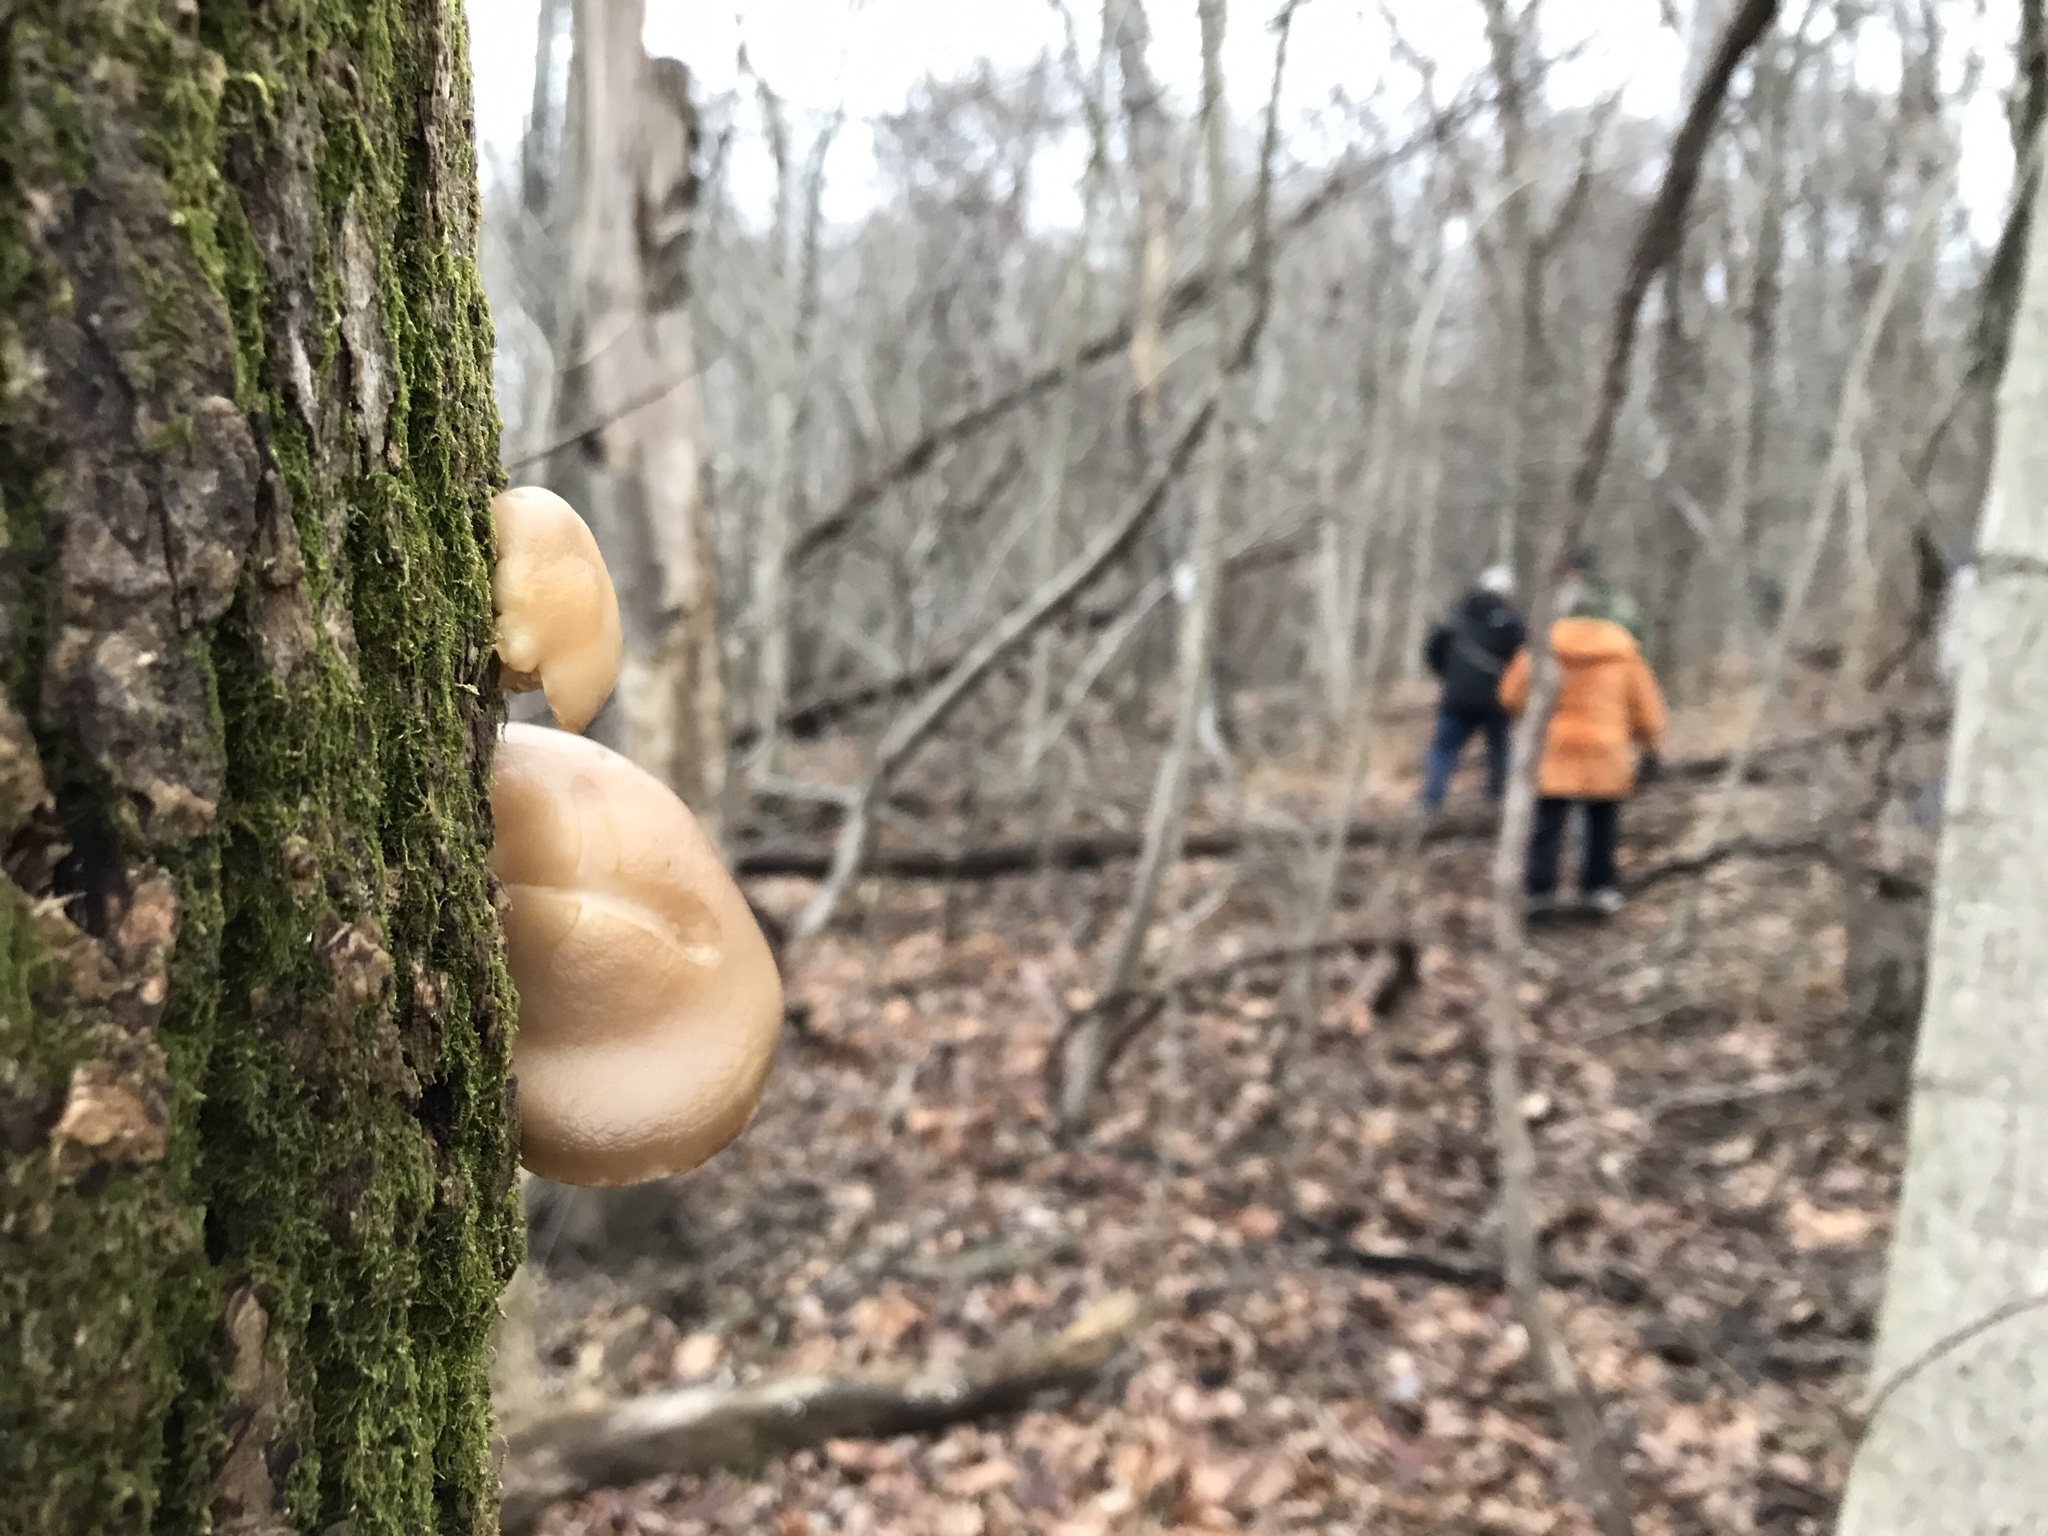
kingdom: Fungi
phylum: Basidiomycota
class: Agaricomycetes
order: Agaricales
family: Pleurotaceae
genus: Pleurotus
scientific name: Pleurotus populinus
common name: Aspen oyster mushroom
